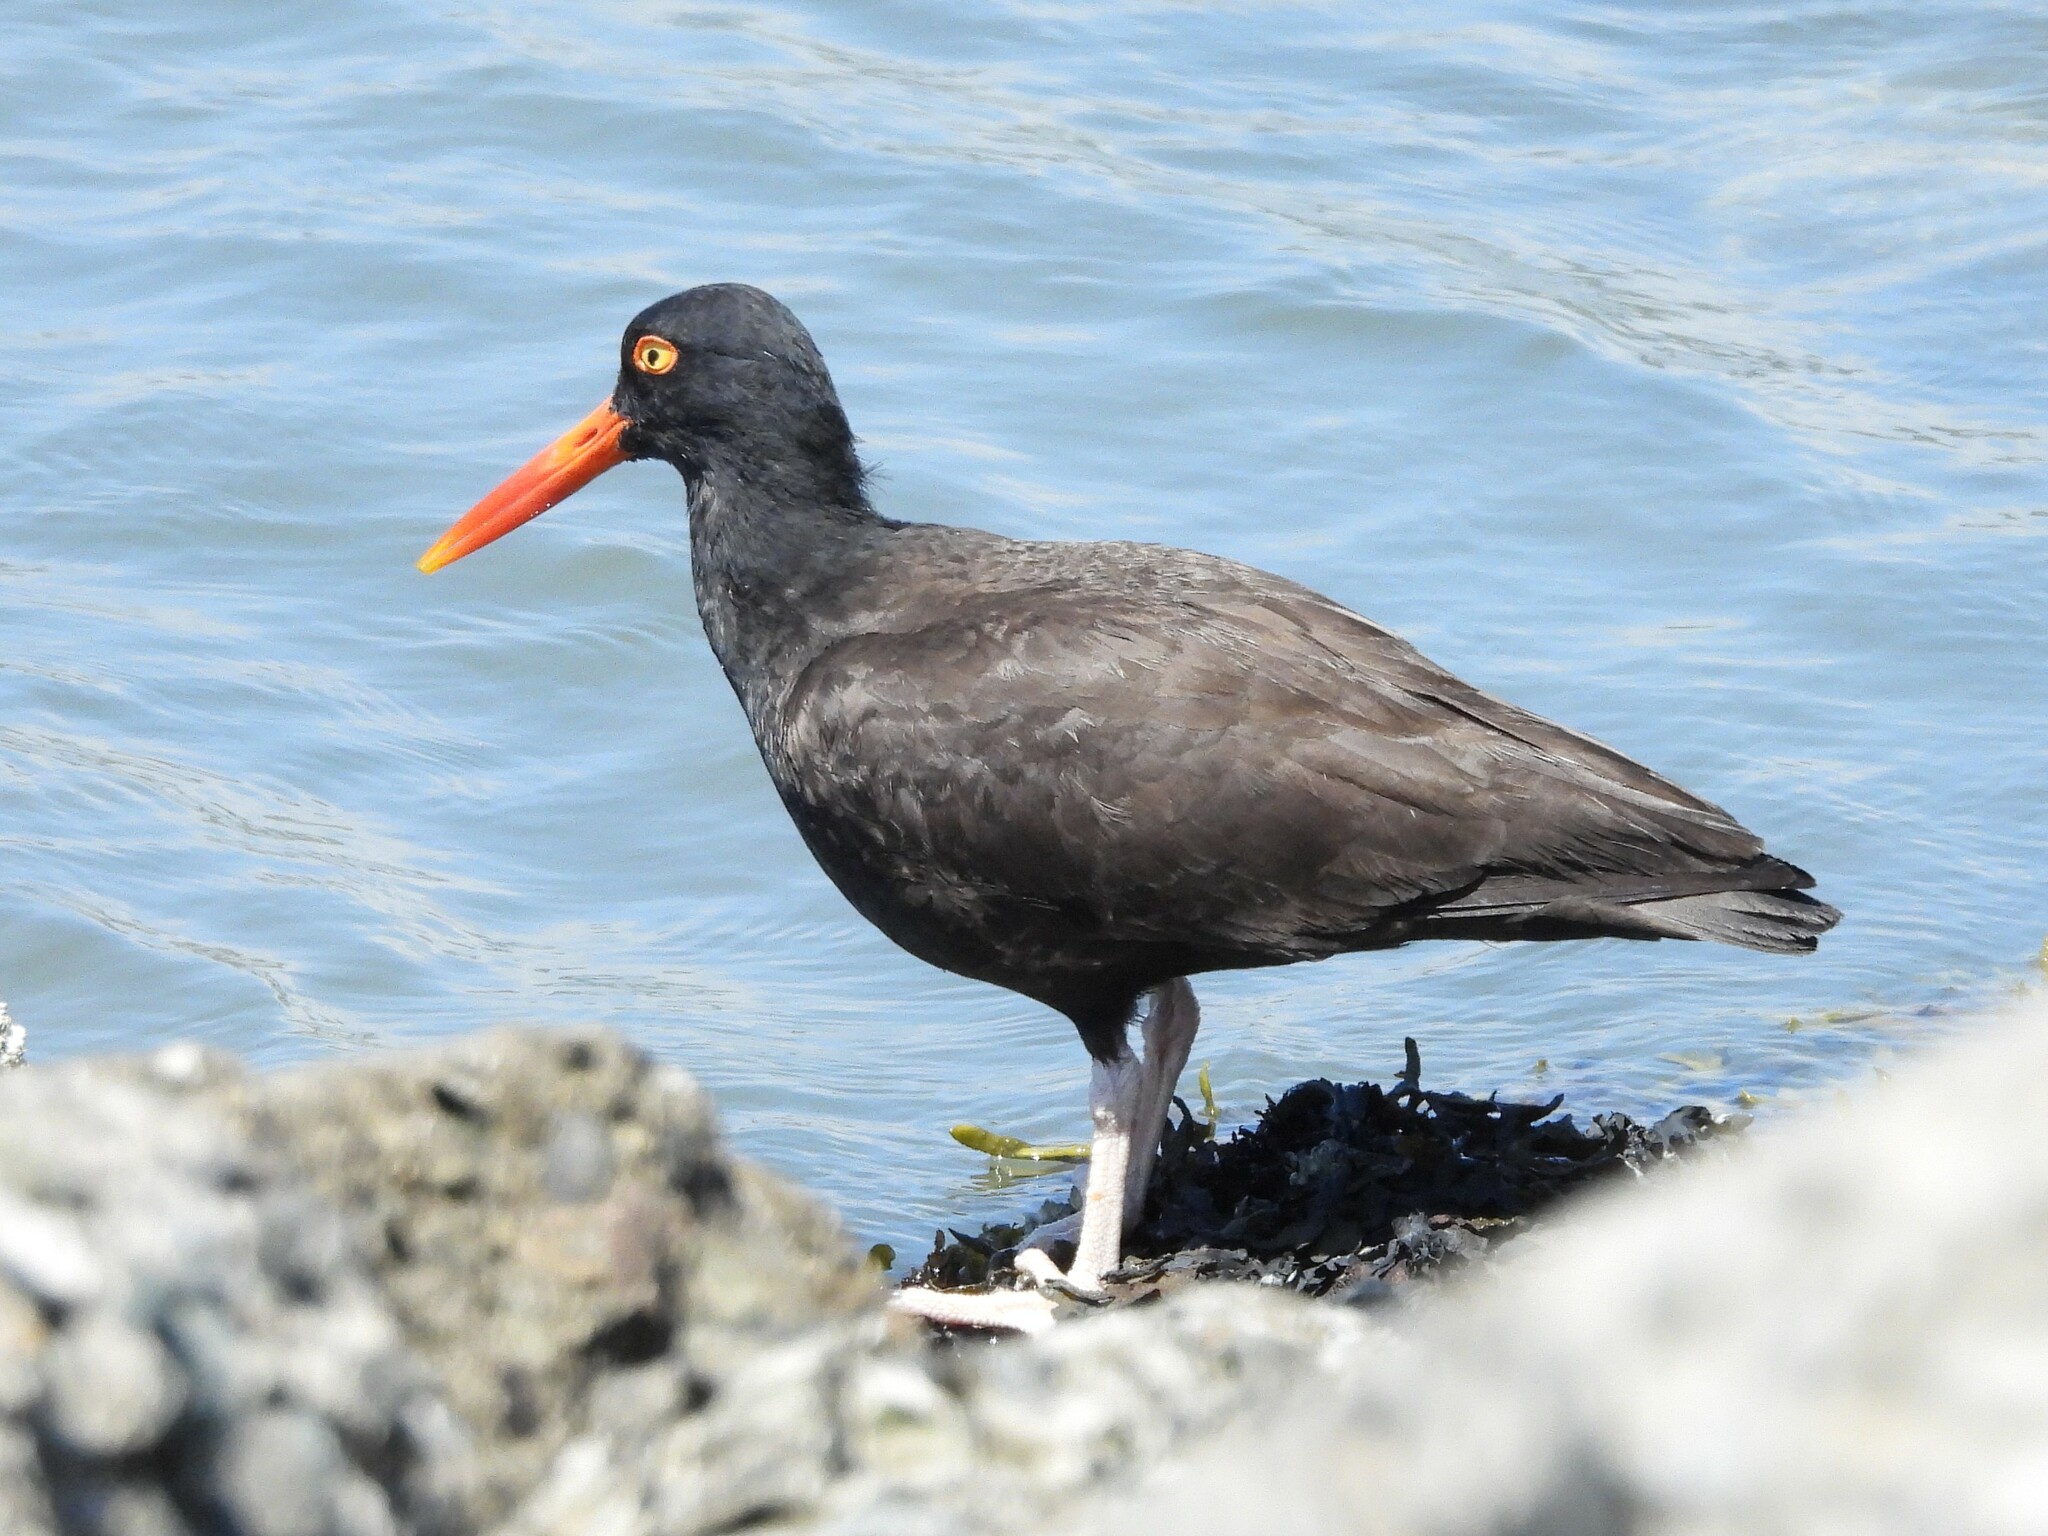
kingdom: Animalia
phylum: Chordata
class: Aves
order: Charadriiformes
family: Haematopodidae
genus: Haematopus
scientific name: Haematopus bachmani
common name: Black oystercatcher
